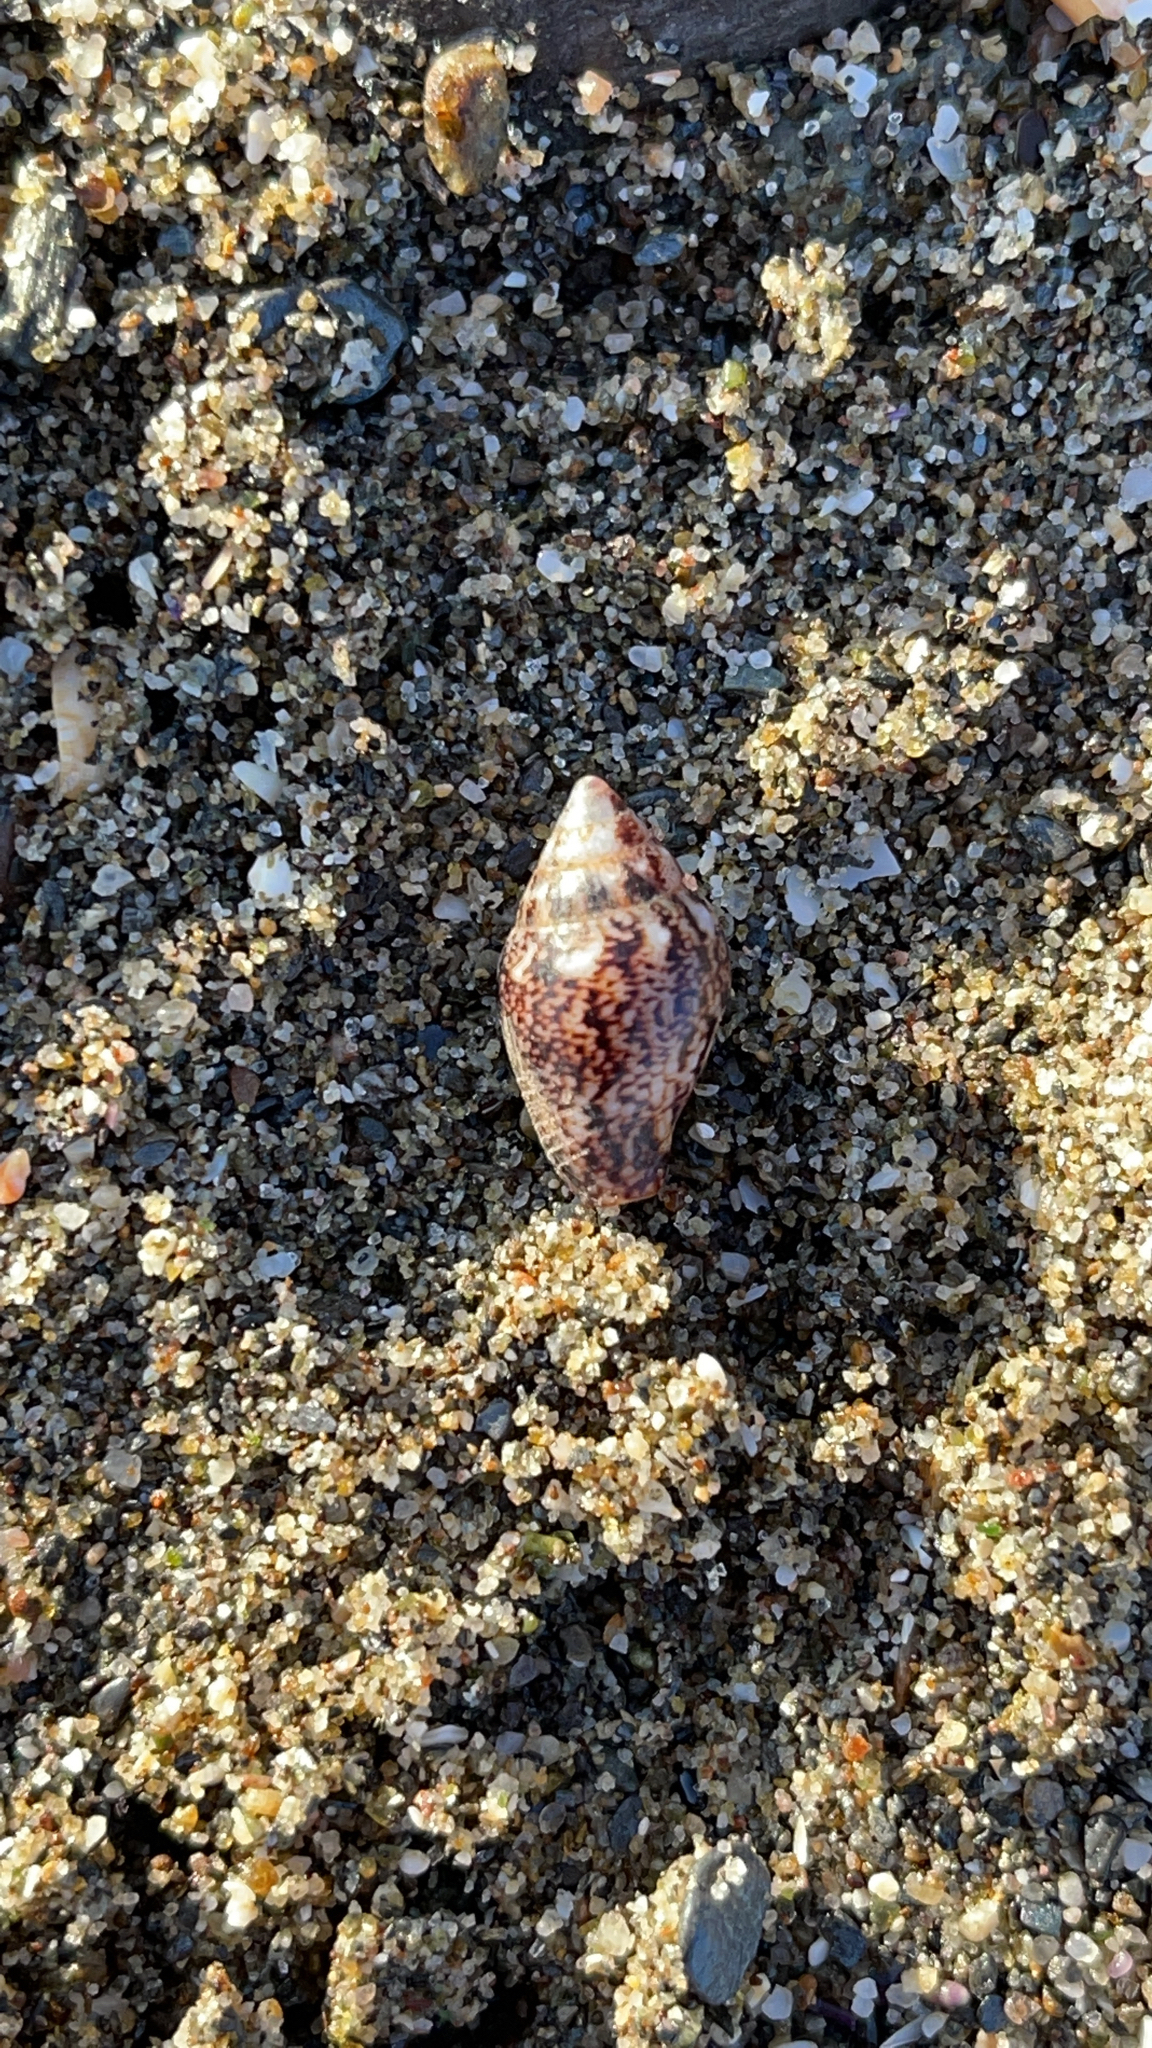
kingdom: Animalia
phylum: Mollusca
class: Gastropoda
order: Neogastropoda
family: Columbellidae
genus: Columbella
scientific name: Columbella rustica
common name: Rustic dove shell
